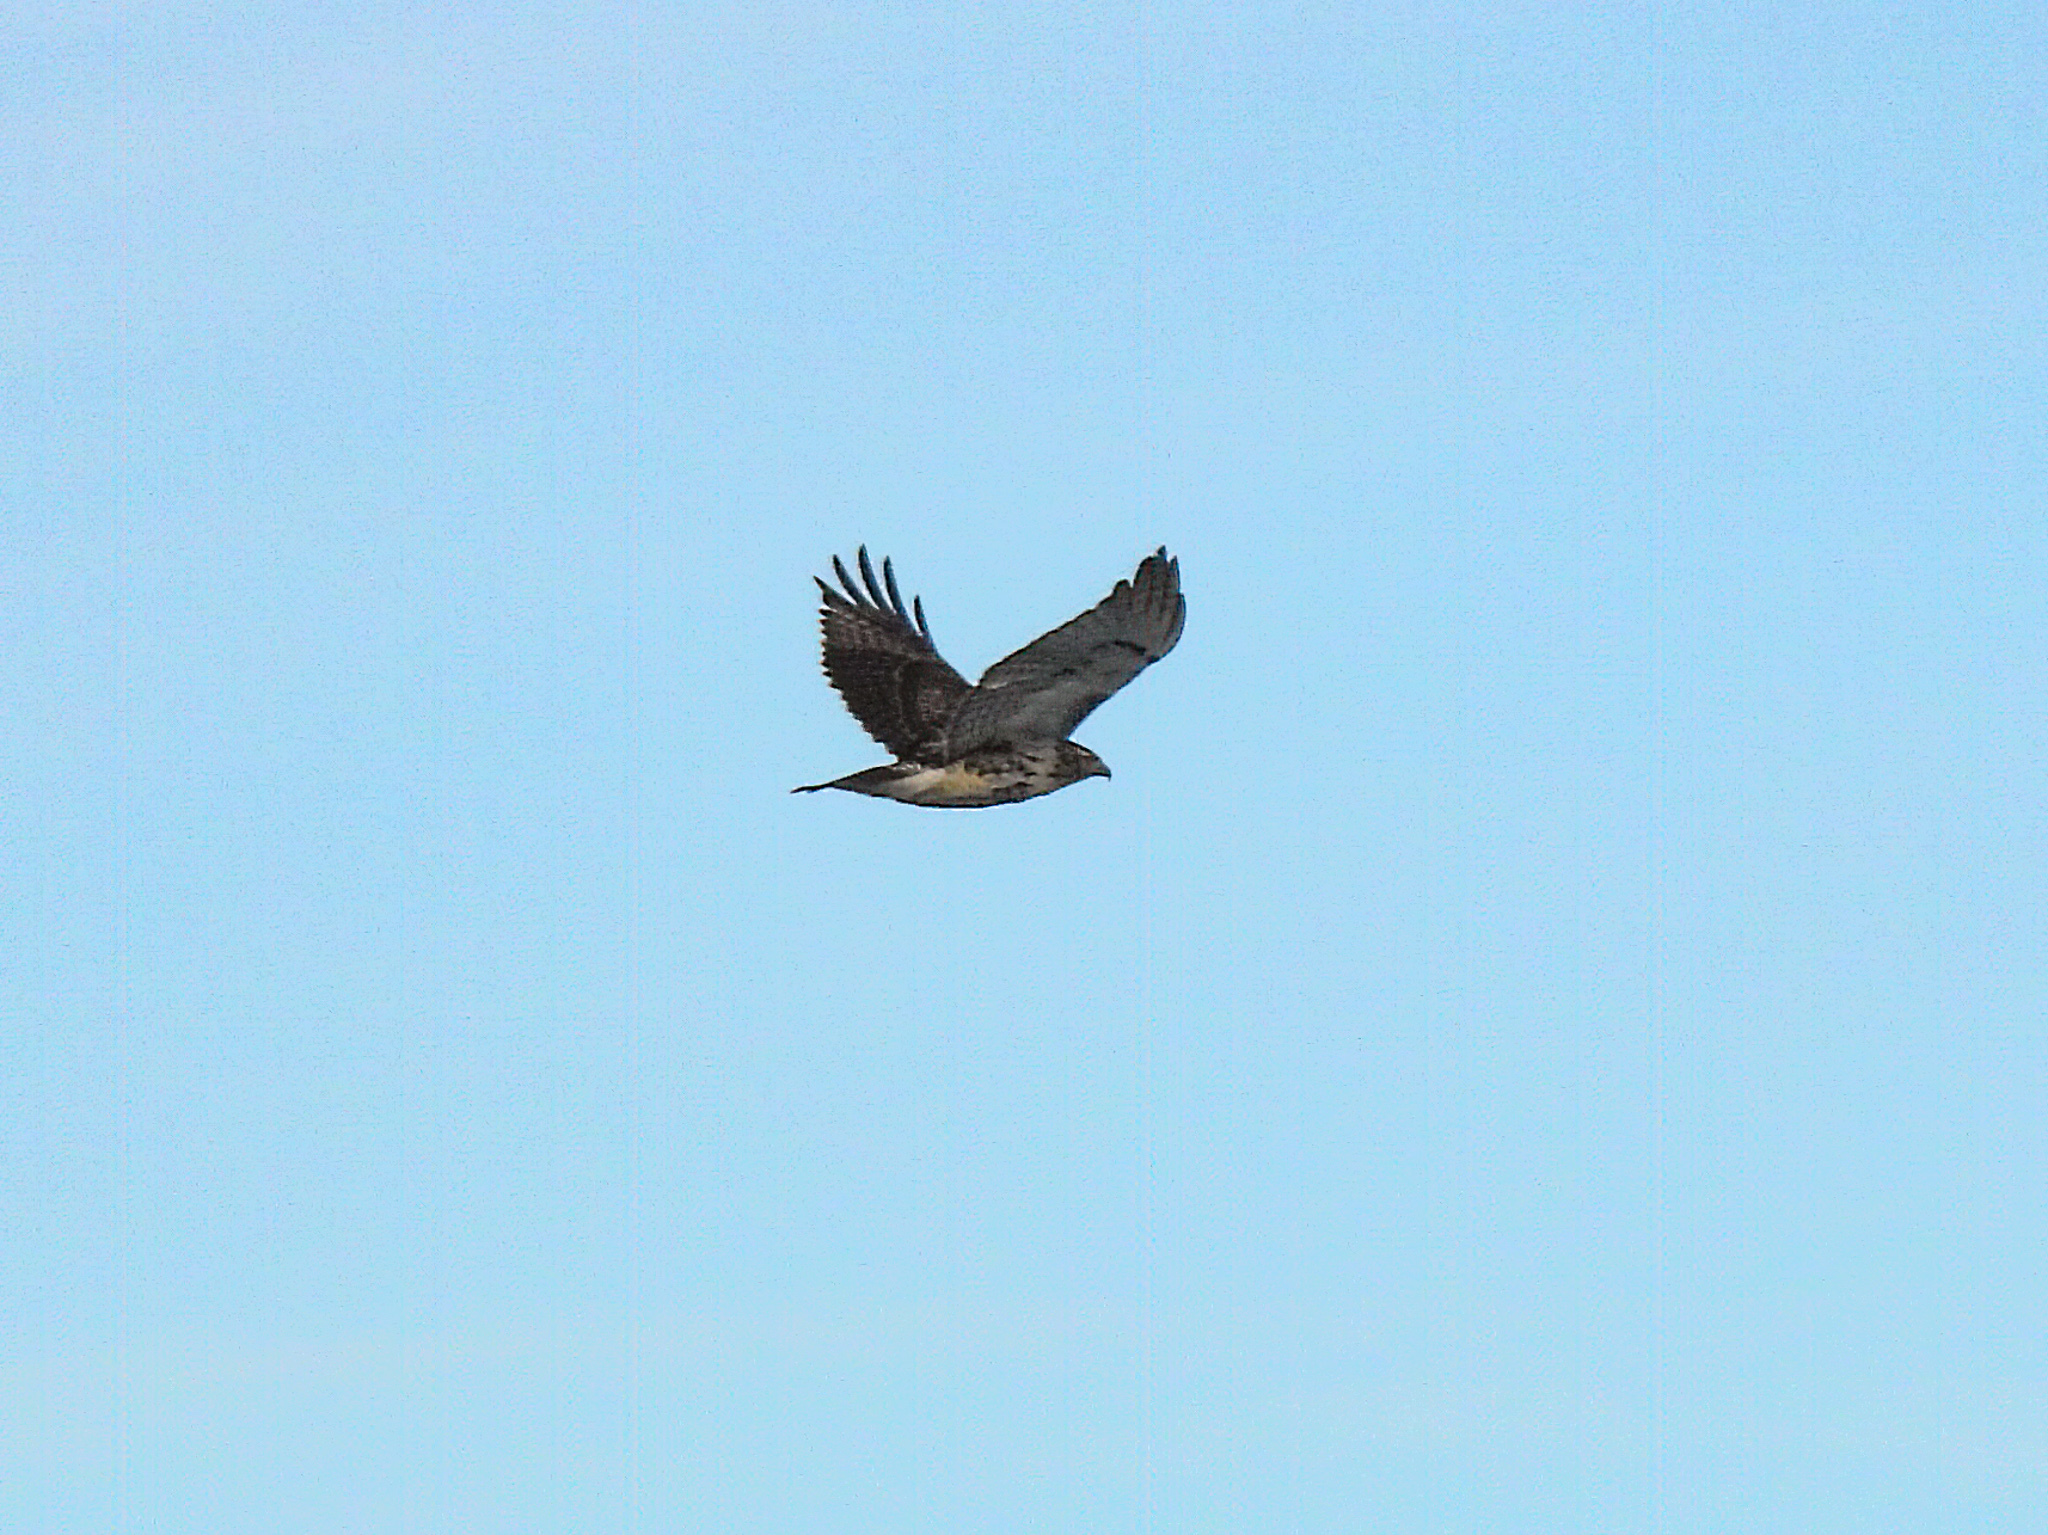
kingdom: Animalia
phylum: Chordata
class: Aves
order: Accipitriformes
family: Accipitridae
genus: Buteo
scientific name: Buteo jamaicensis
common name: Red-tailed hawk
